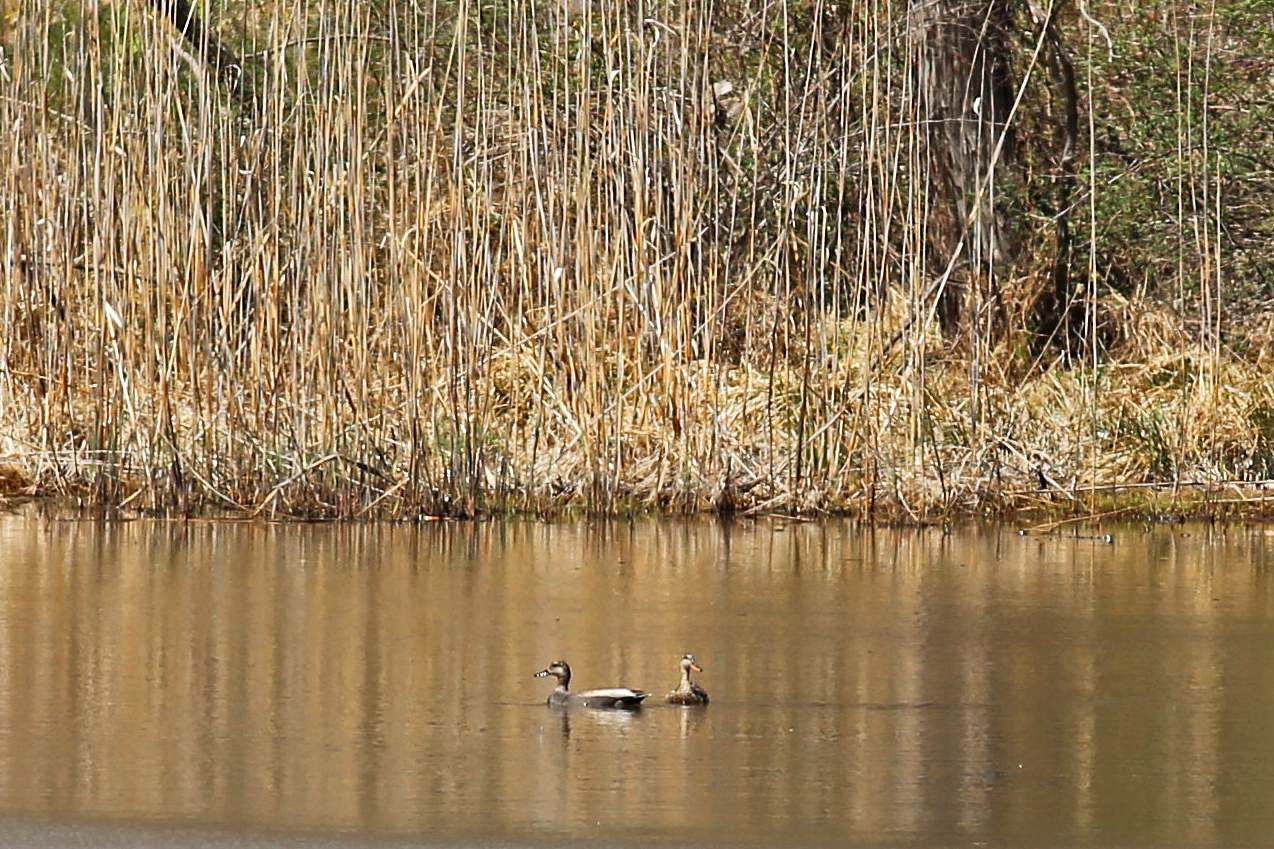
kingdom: Animalia
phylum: Chordata
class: Aves
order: Anseriformes
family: Anatidae
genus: Mareca
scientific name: Mareca strepera
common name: Gadwall
